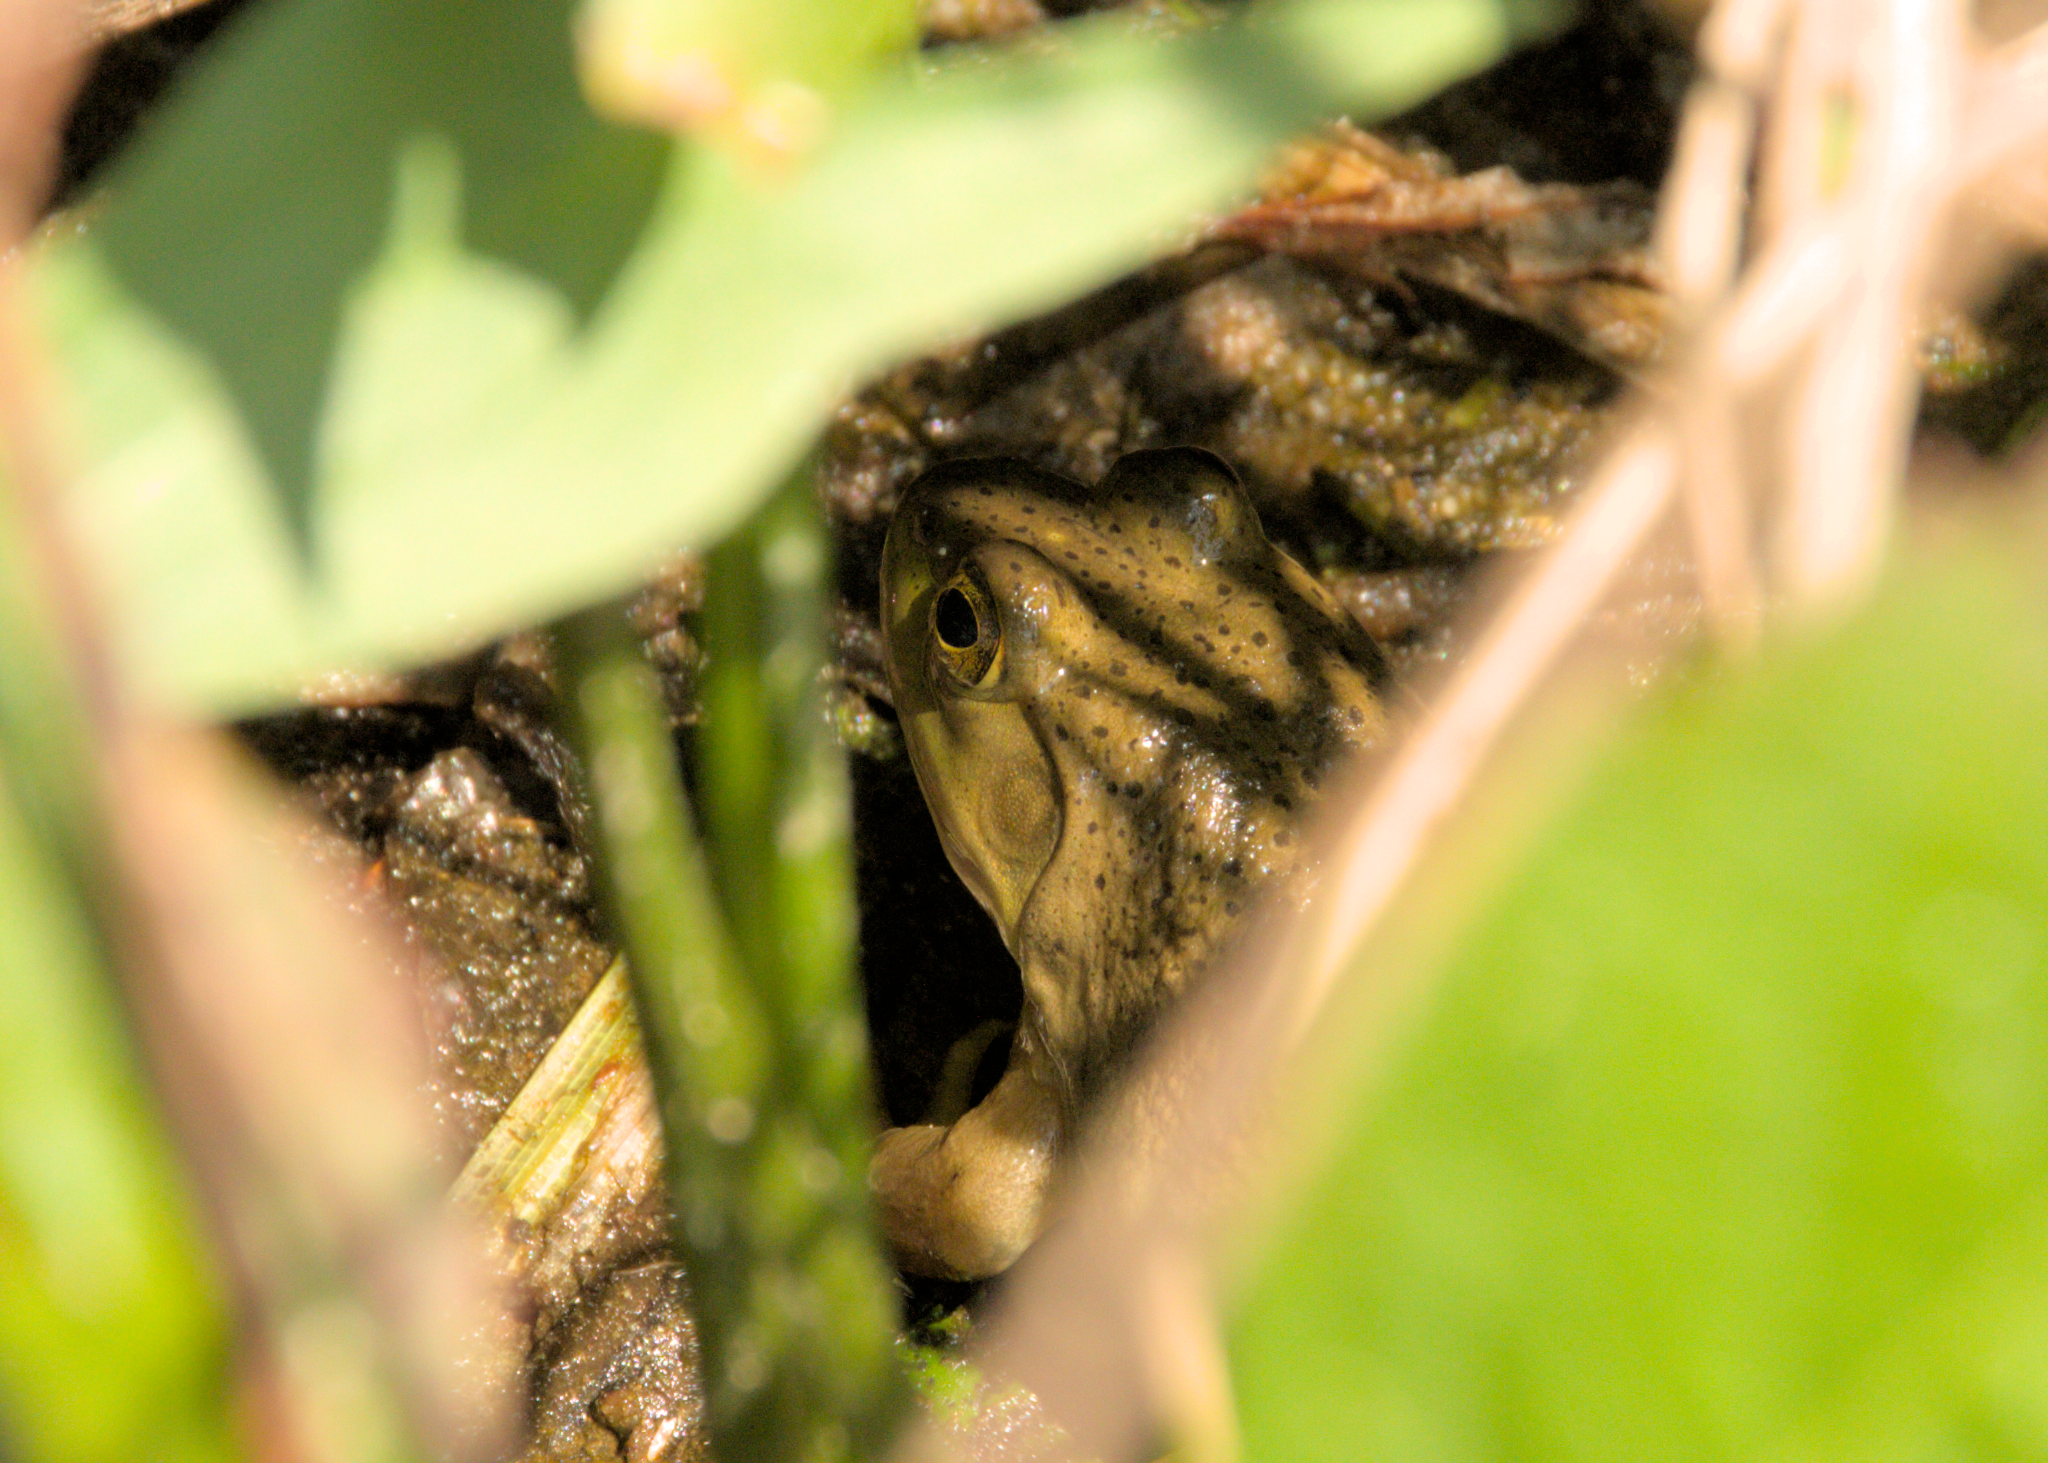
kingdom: Animalia
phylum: Chordata
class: Amphibia
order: Anura
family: Ranidae
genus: Lithobates
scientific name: Lithobates catesbeianus
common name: American bullfrog
